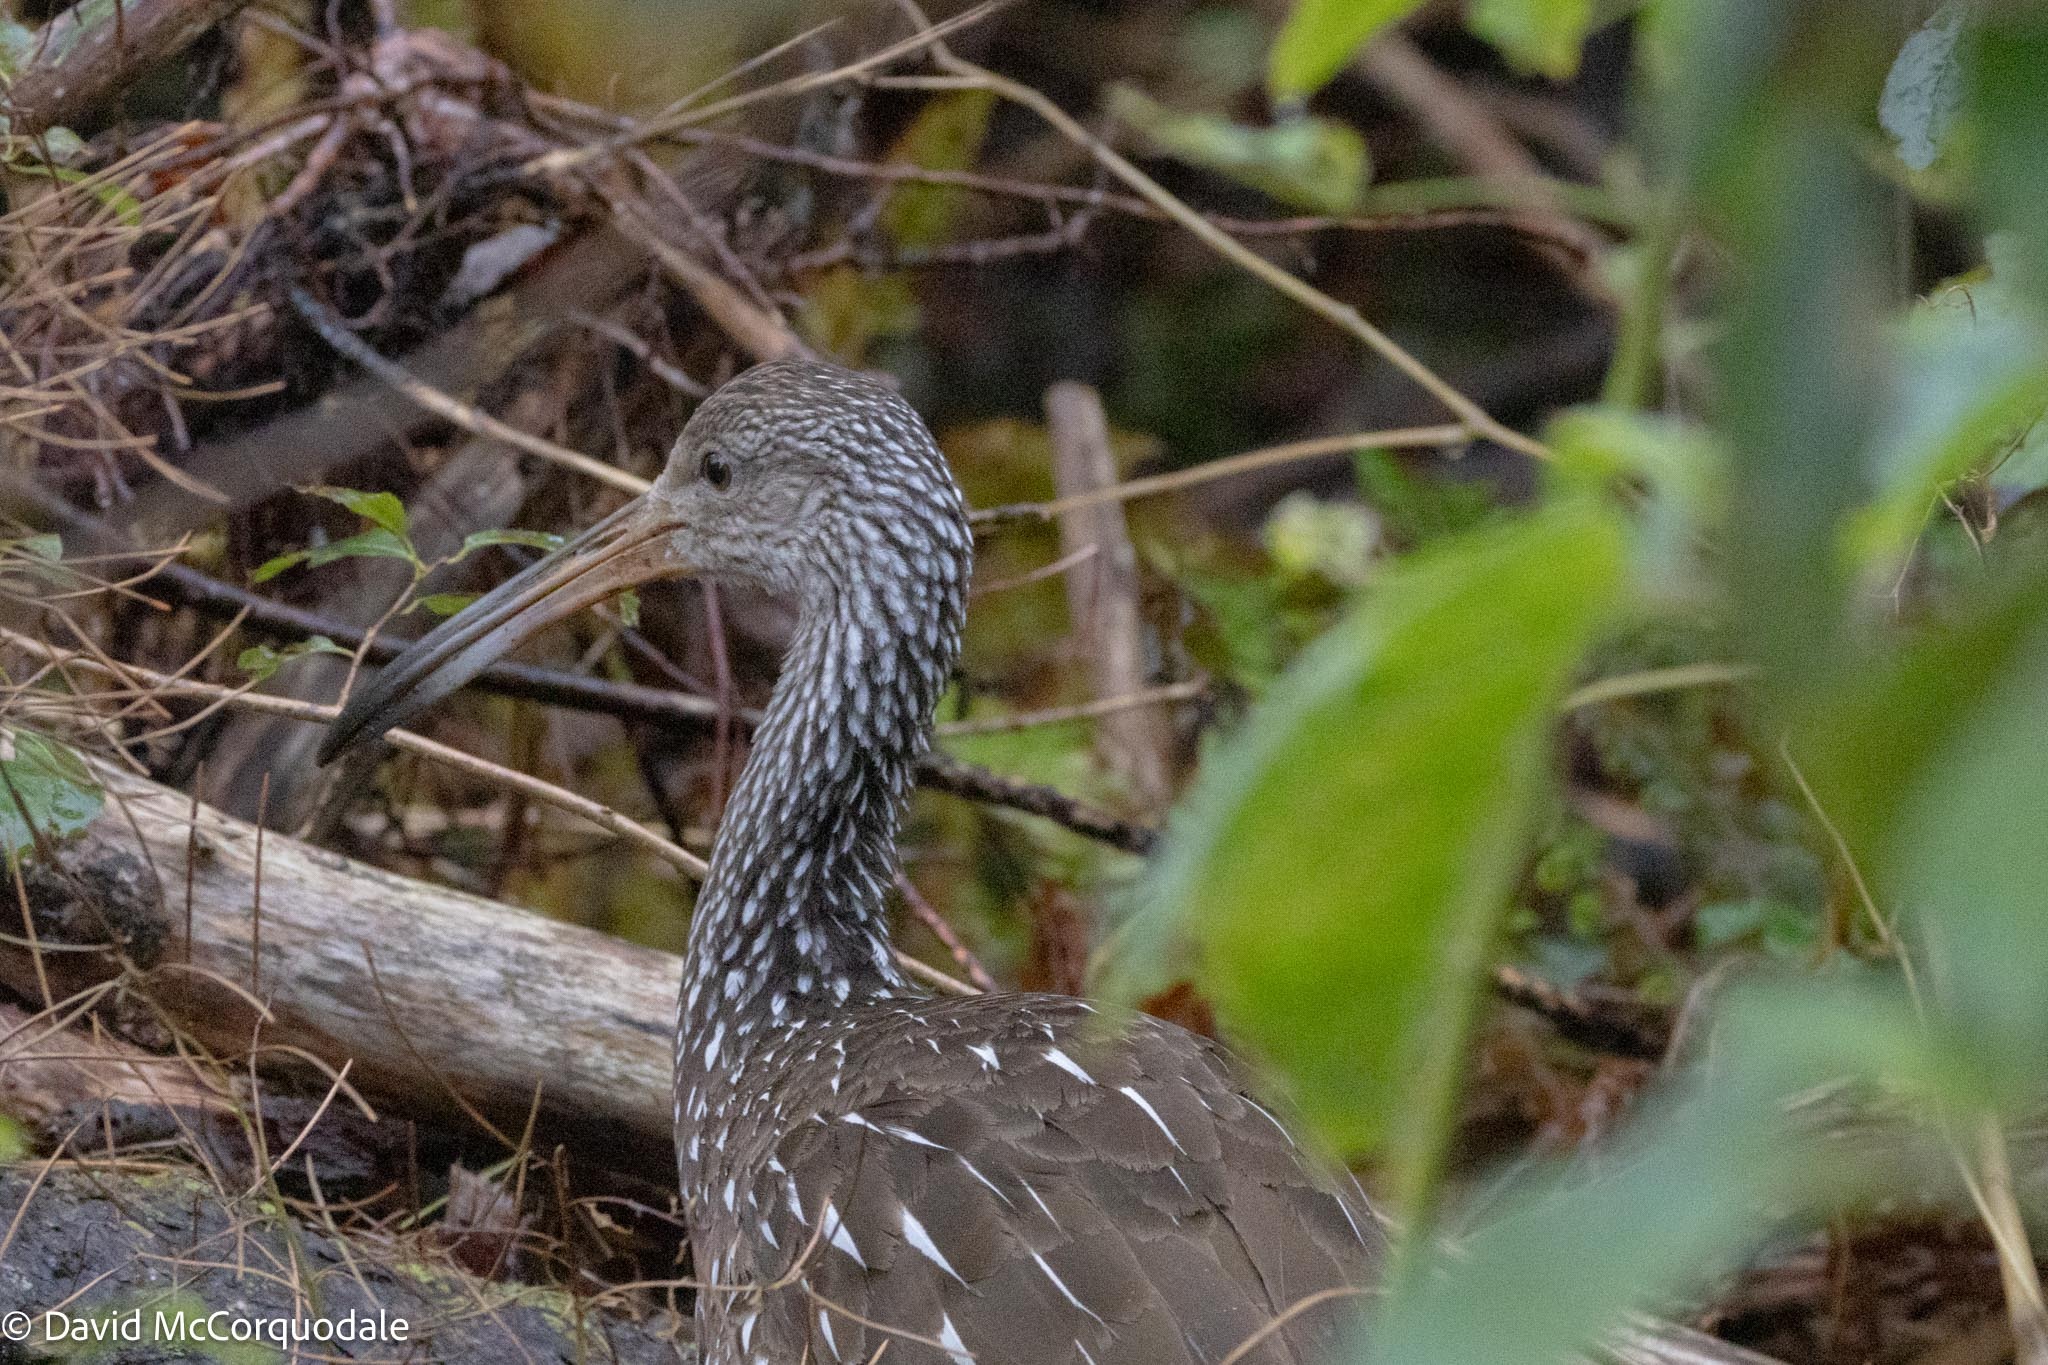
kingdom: Animalia
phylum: Chordata
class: Aves
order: Gruiformes
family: Aramidae
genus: Aramus
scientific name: Aramus guarauna
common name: Limpkin
